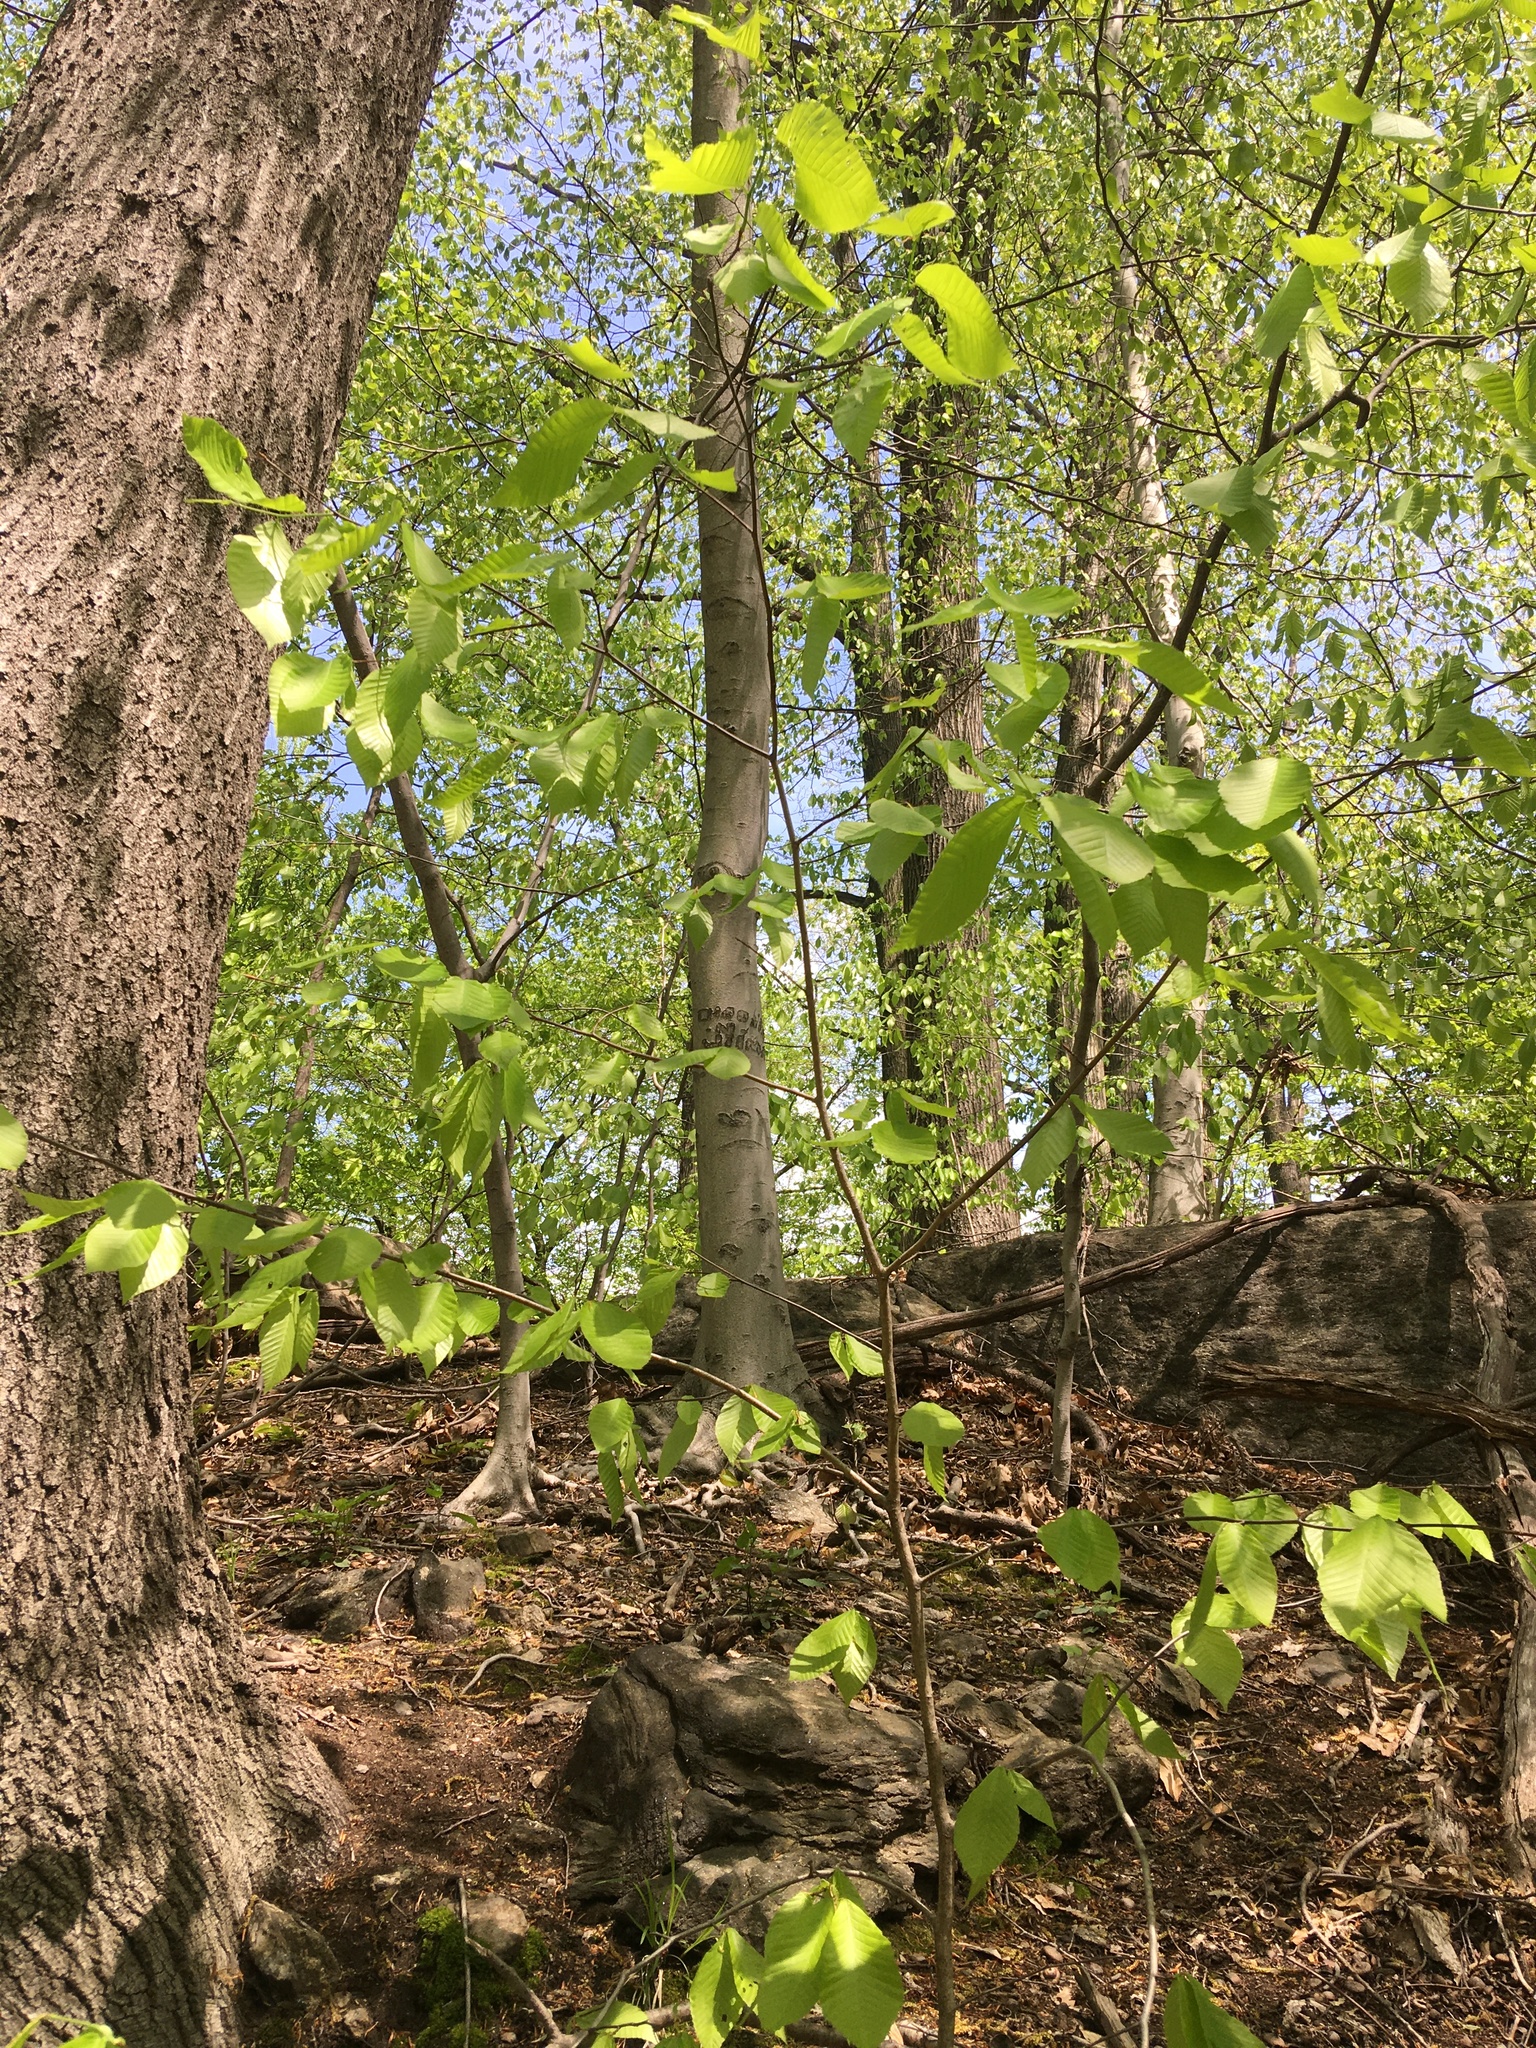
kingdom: Plantae
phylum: Tracheophyta
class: Magnoliopsida
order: Fagales
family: Fagaceae
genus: Fagus
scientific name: Fagus grandifolia
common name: American beech
